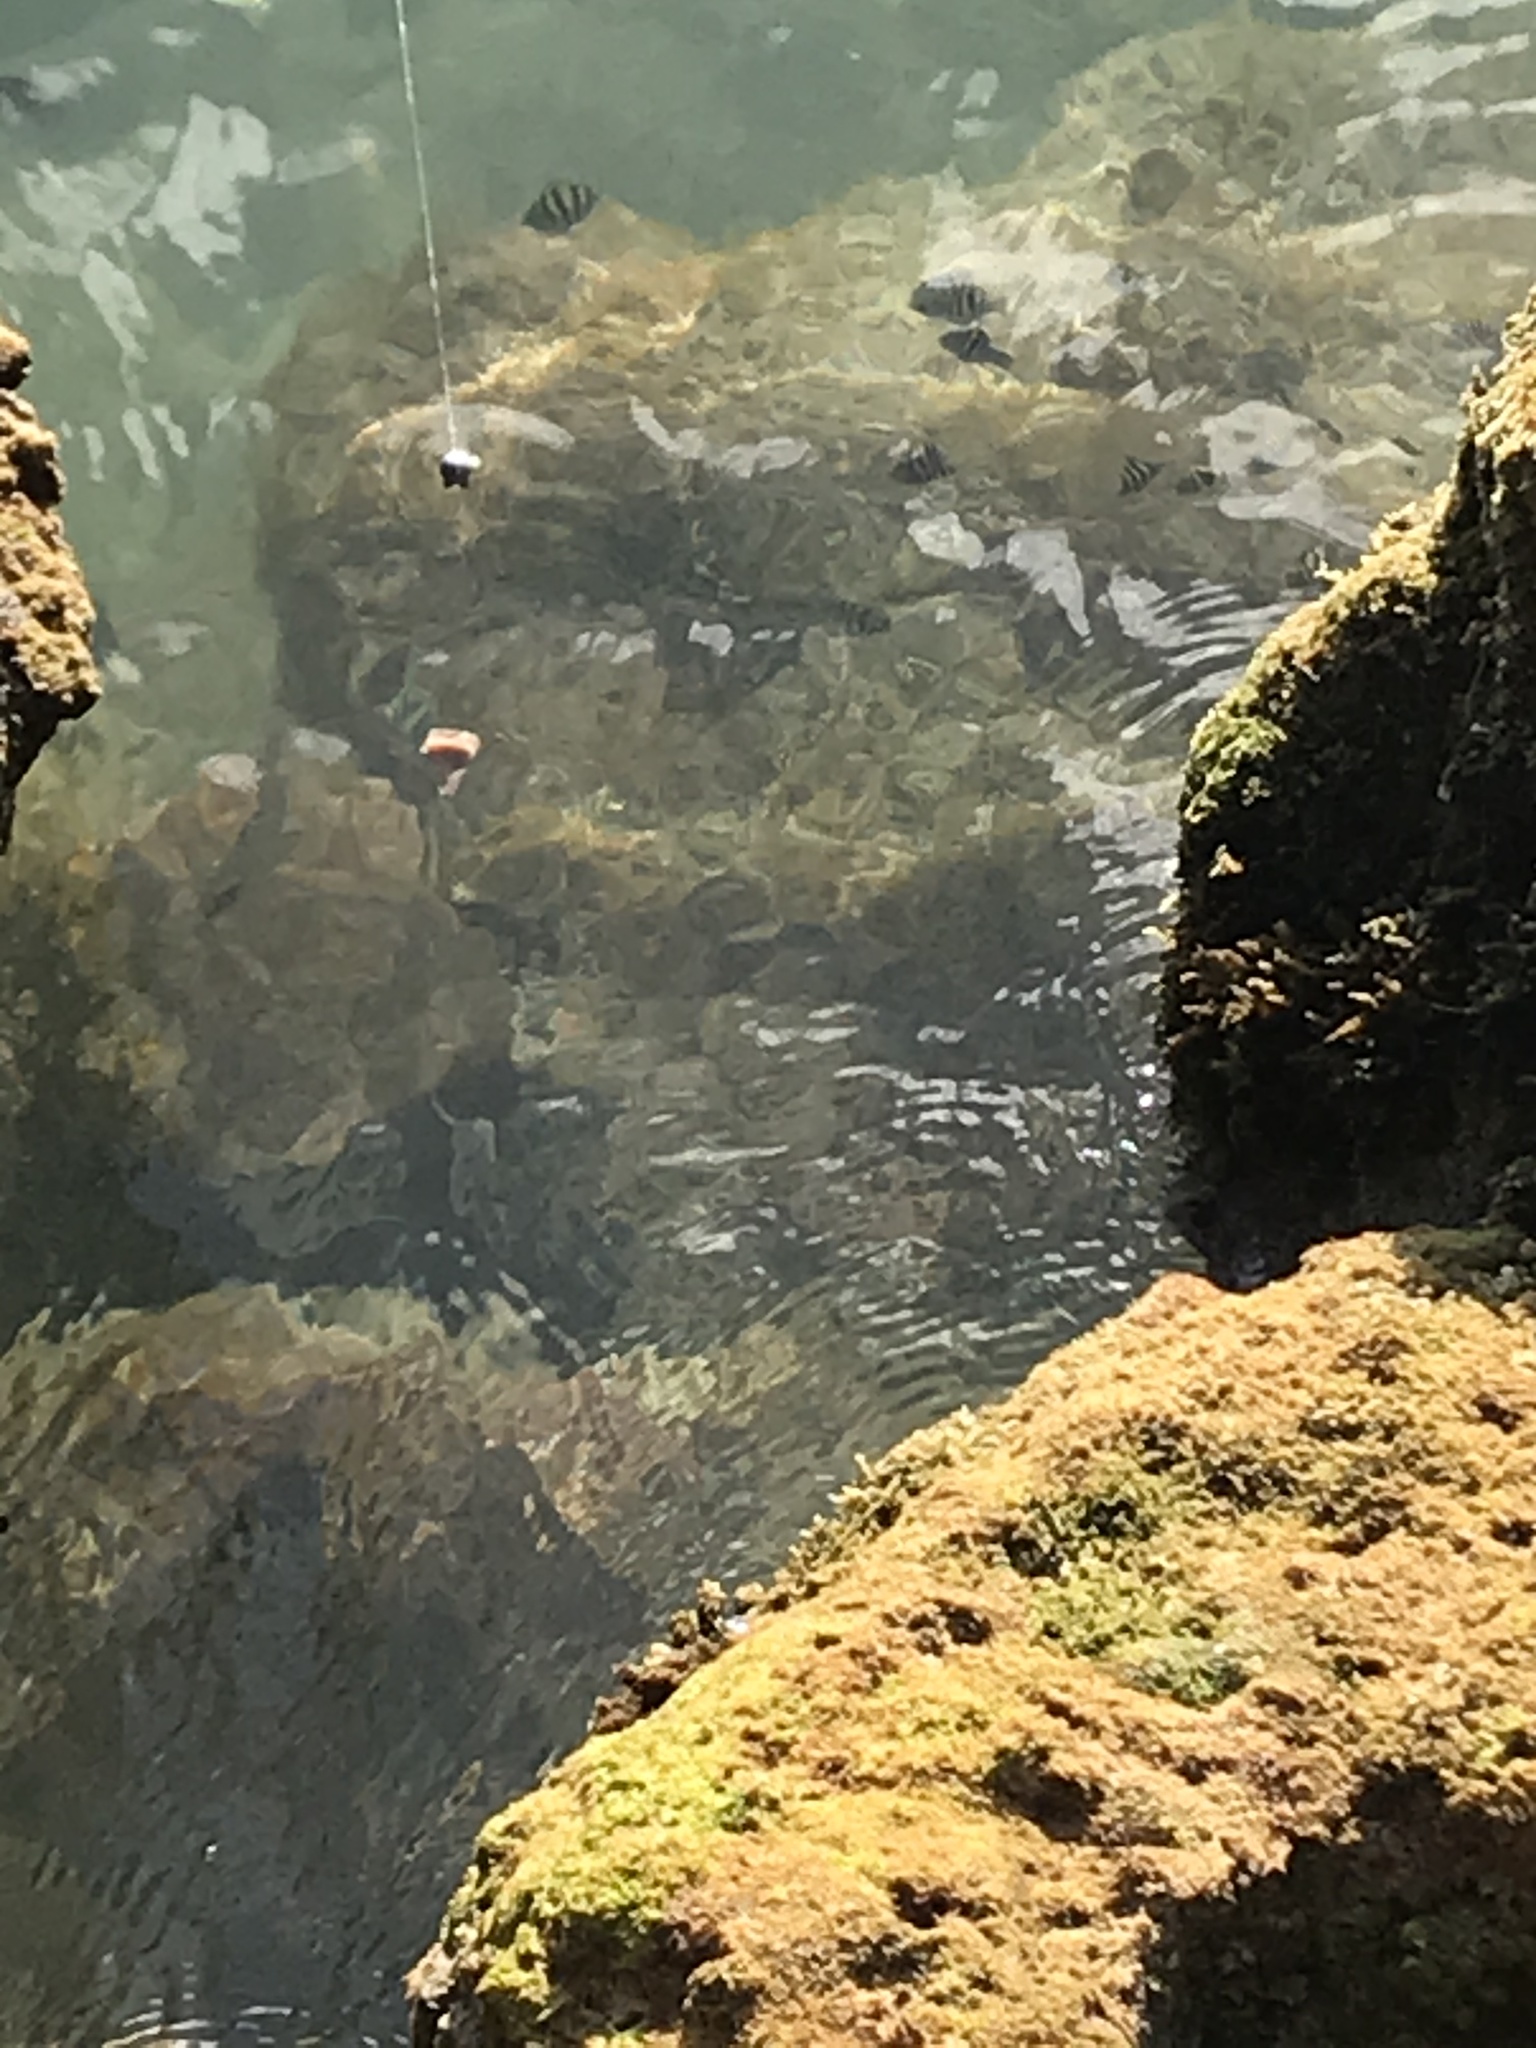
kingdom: Animalia
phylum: Chordata
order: Perciformes
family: Pomacentridae
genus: Abudefduf
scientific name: Abudefduf saxatilis
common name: Sergeant major
